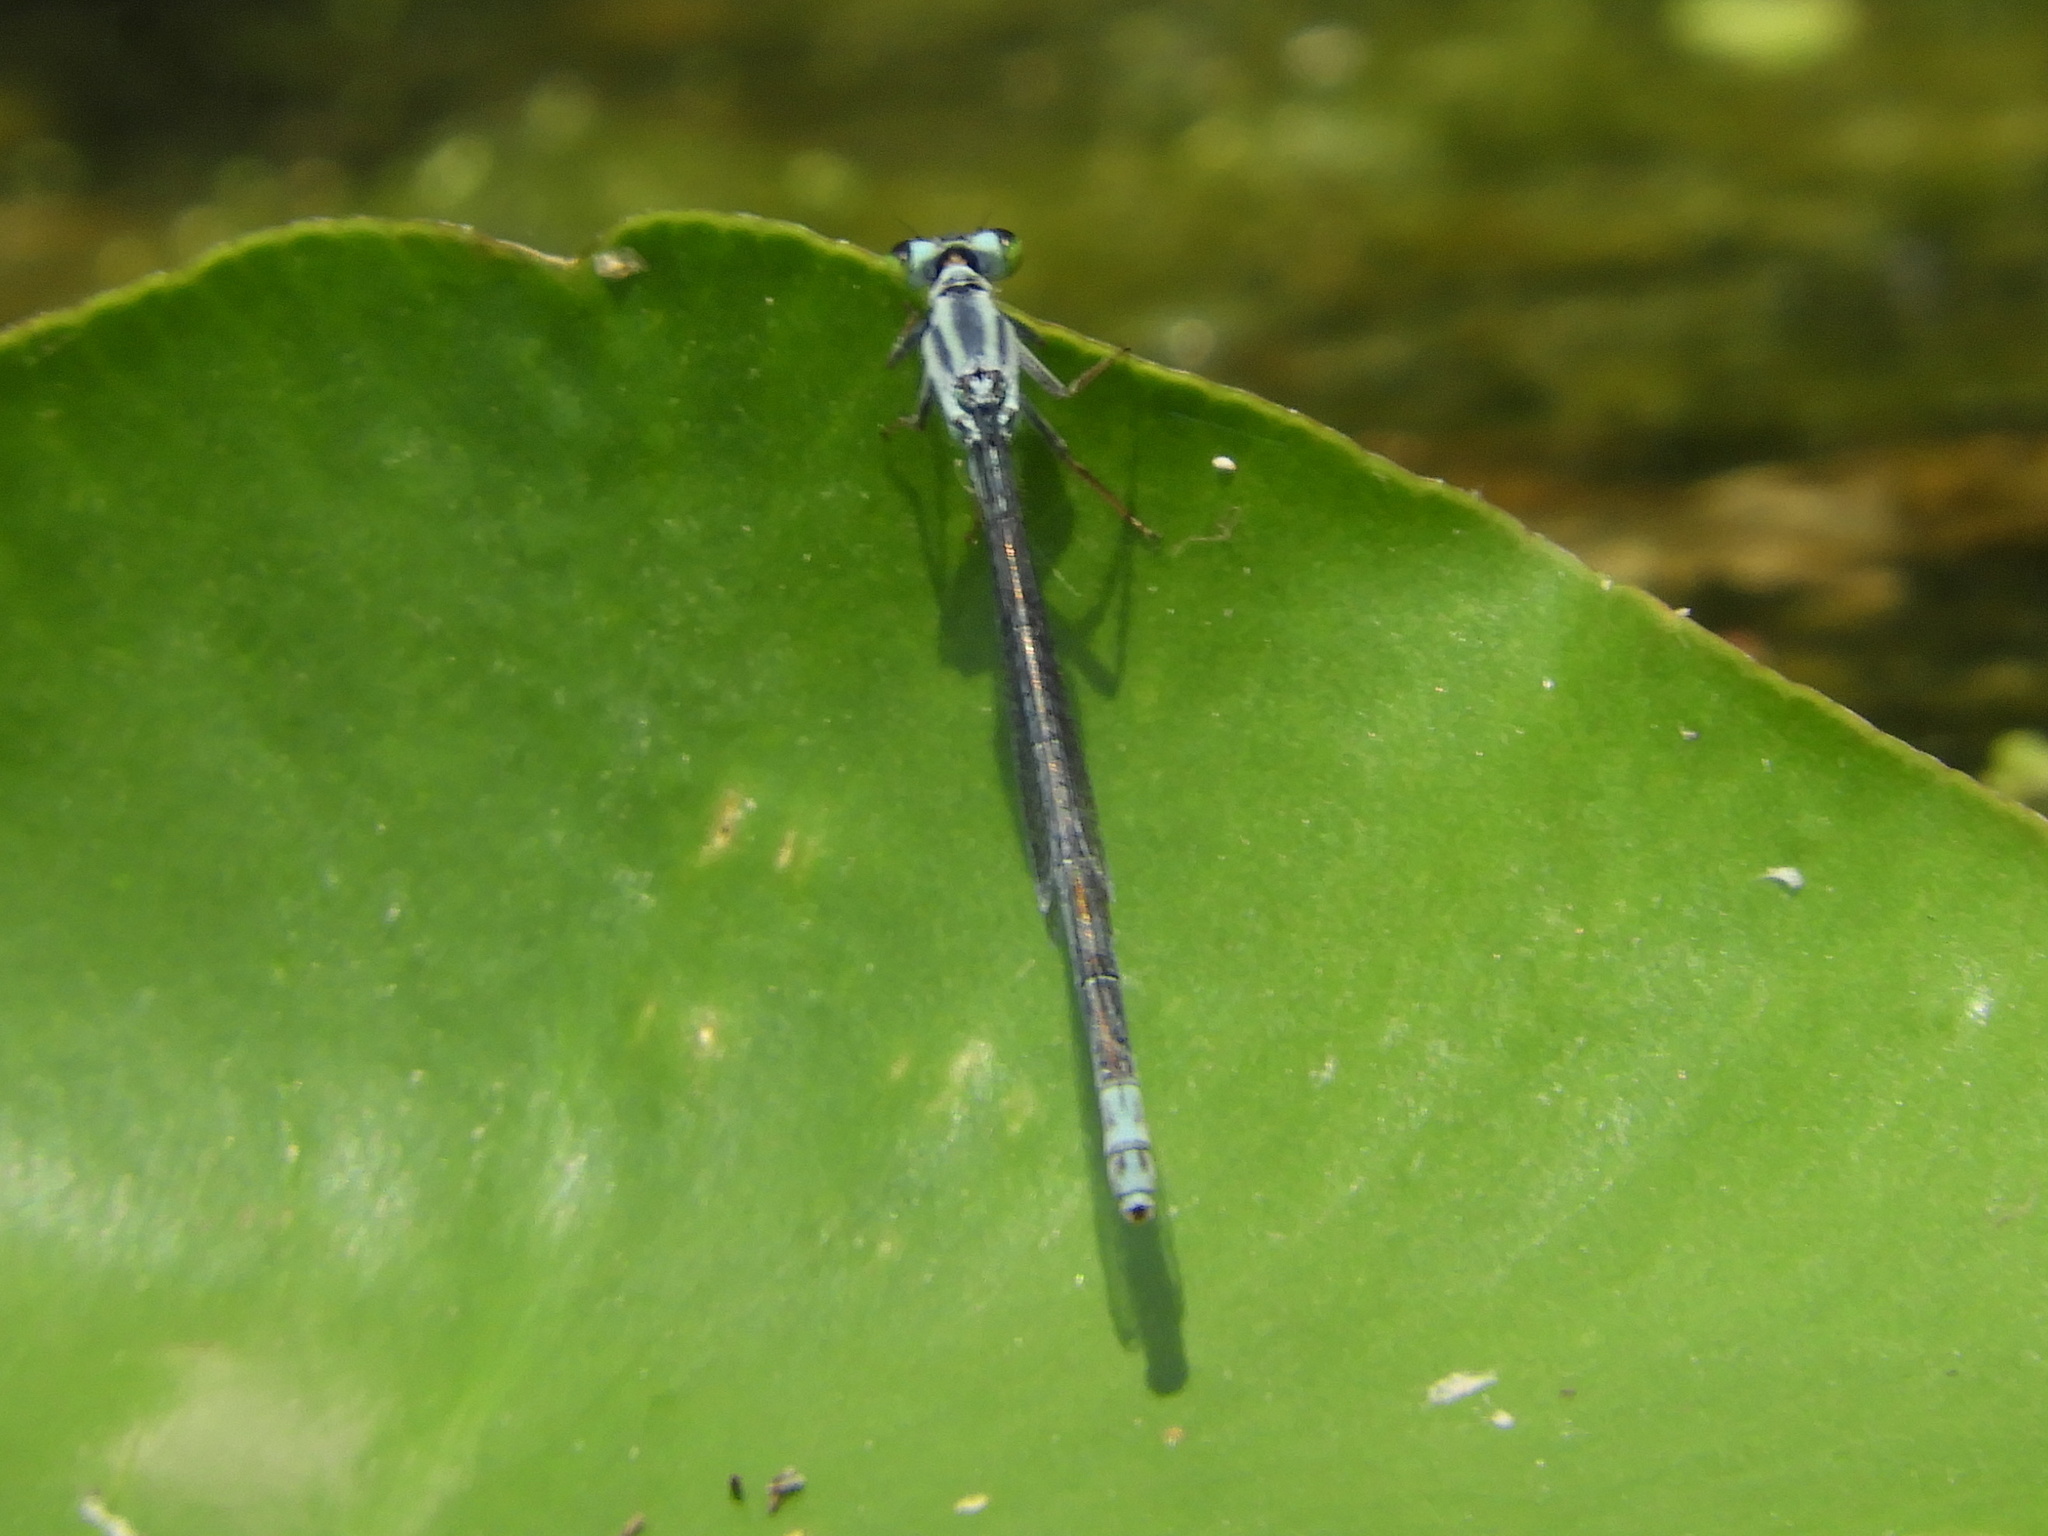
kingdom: Animalia
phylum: Arthropoda
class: Insecta
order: Odonata
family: Coenagrionidae
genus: Ischnura
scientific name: Ischnura kellicotti
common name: Lilypad forktail
